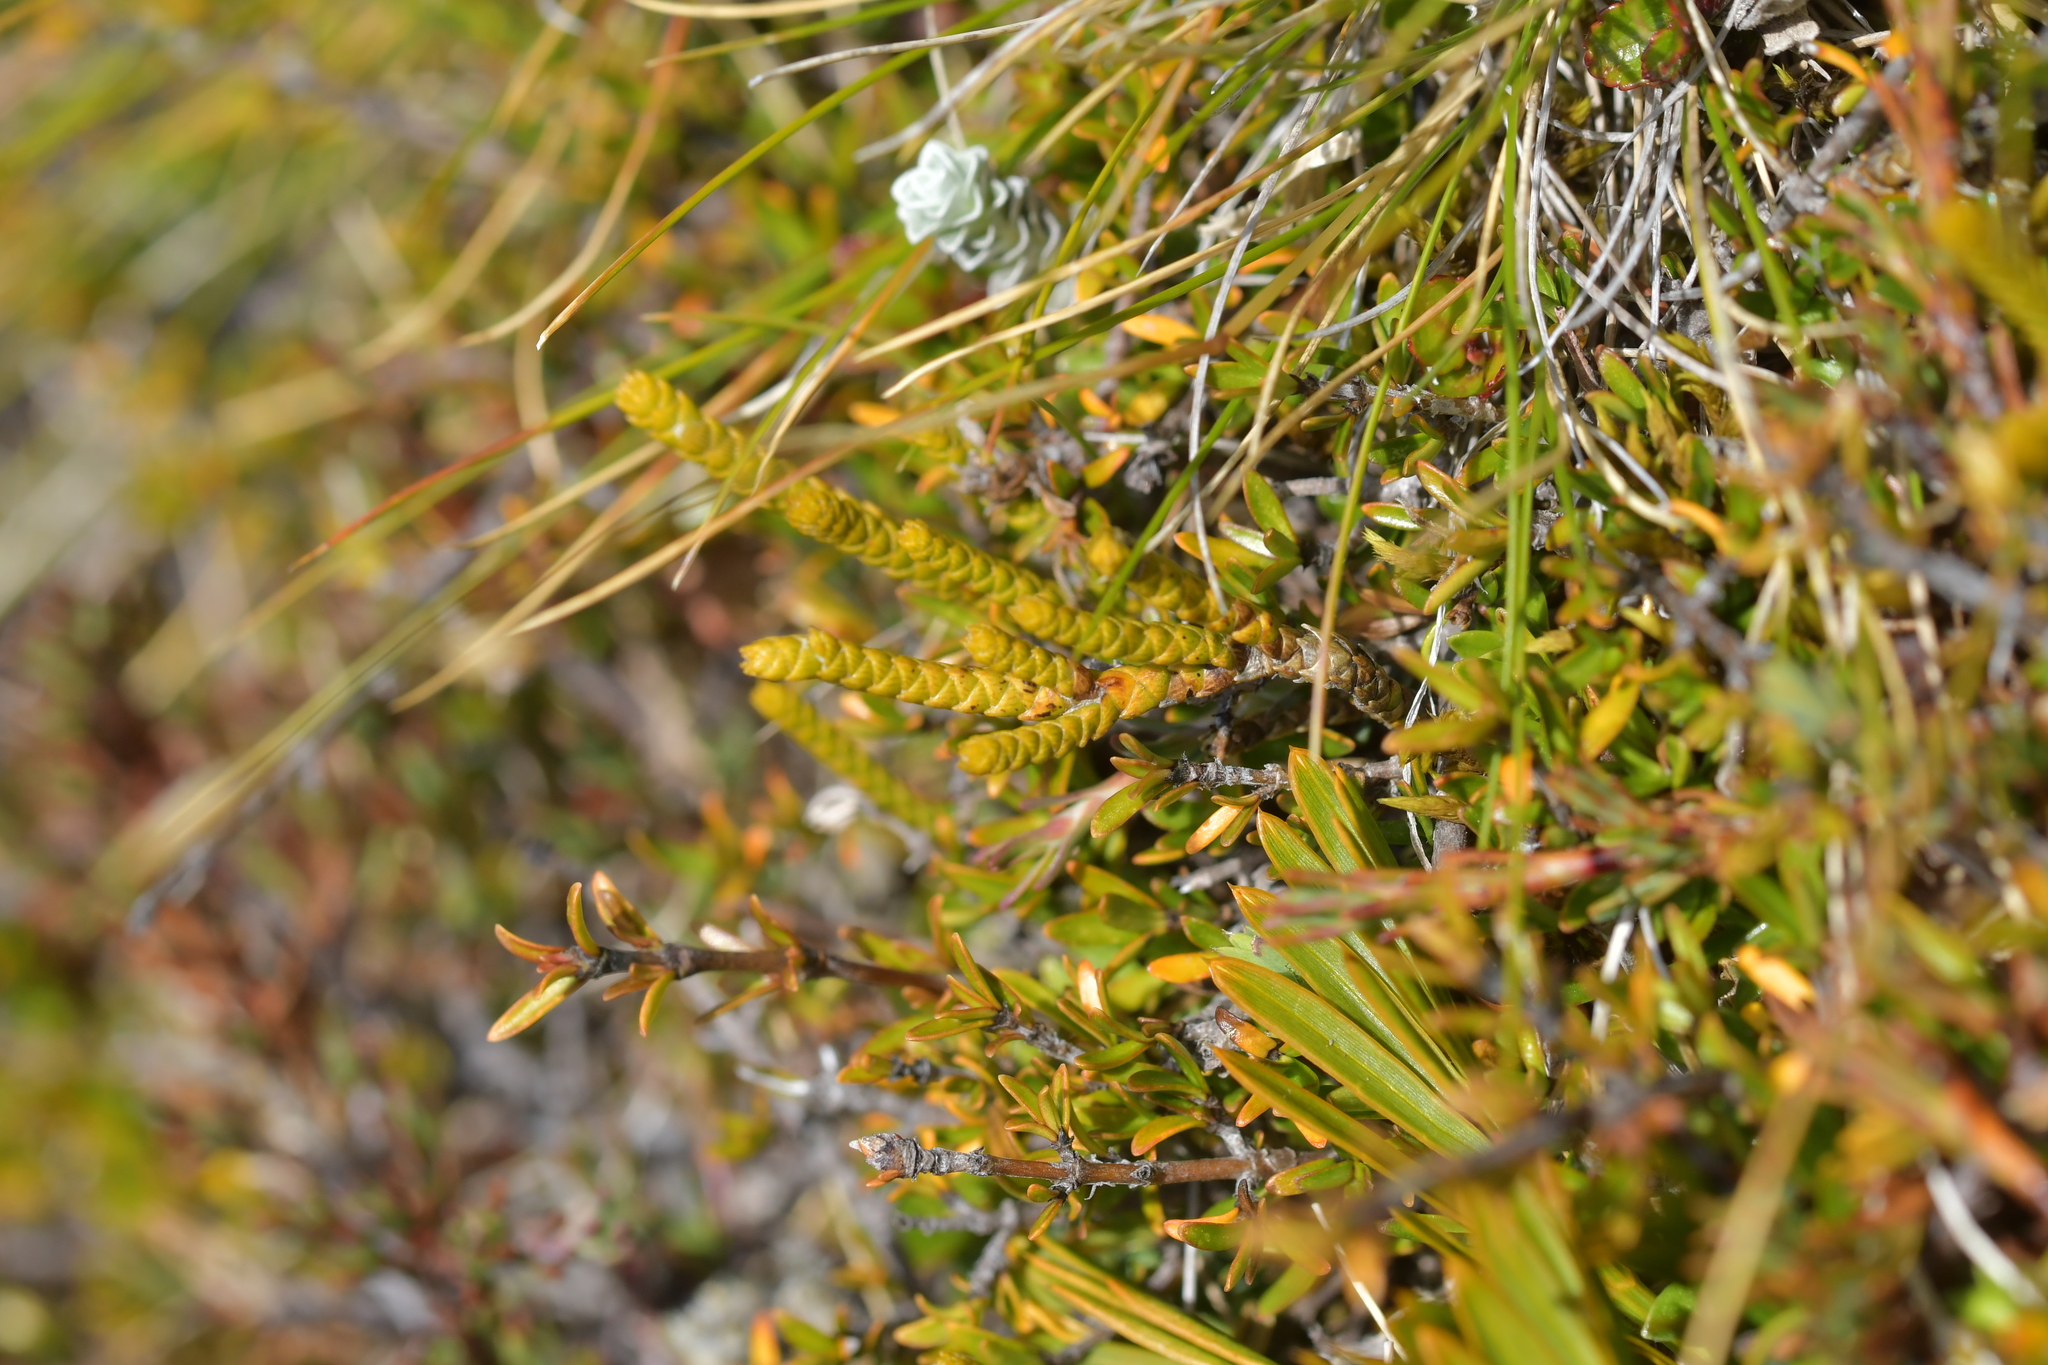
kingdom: Plantae
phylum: Tracheophyta
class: Magnoliopsida
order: Lamiales
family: Plantaginaceae
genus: Veronica
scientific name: Veronica lycopodioides
